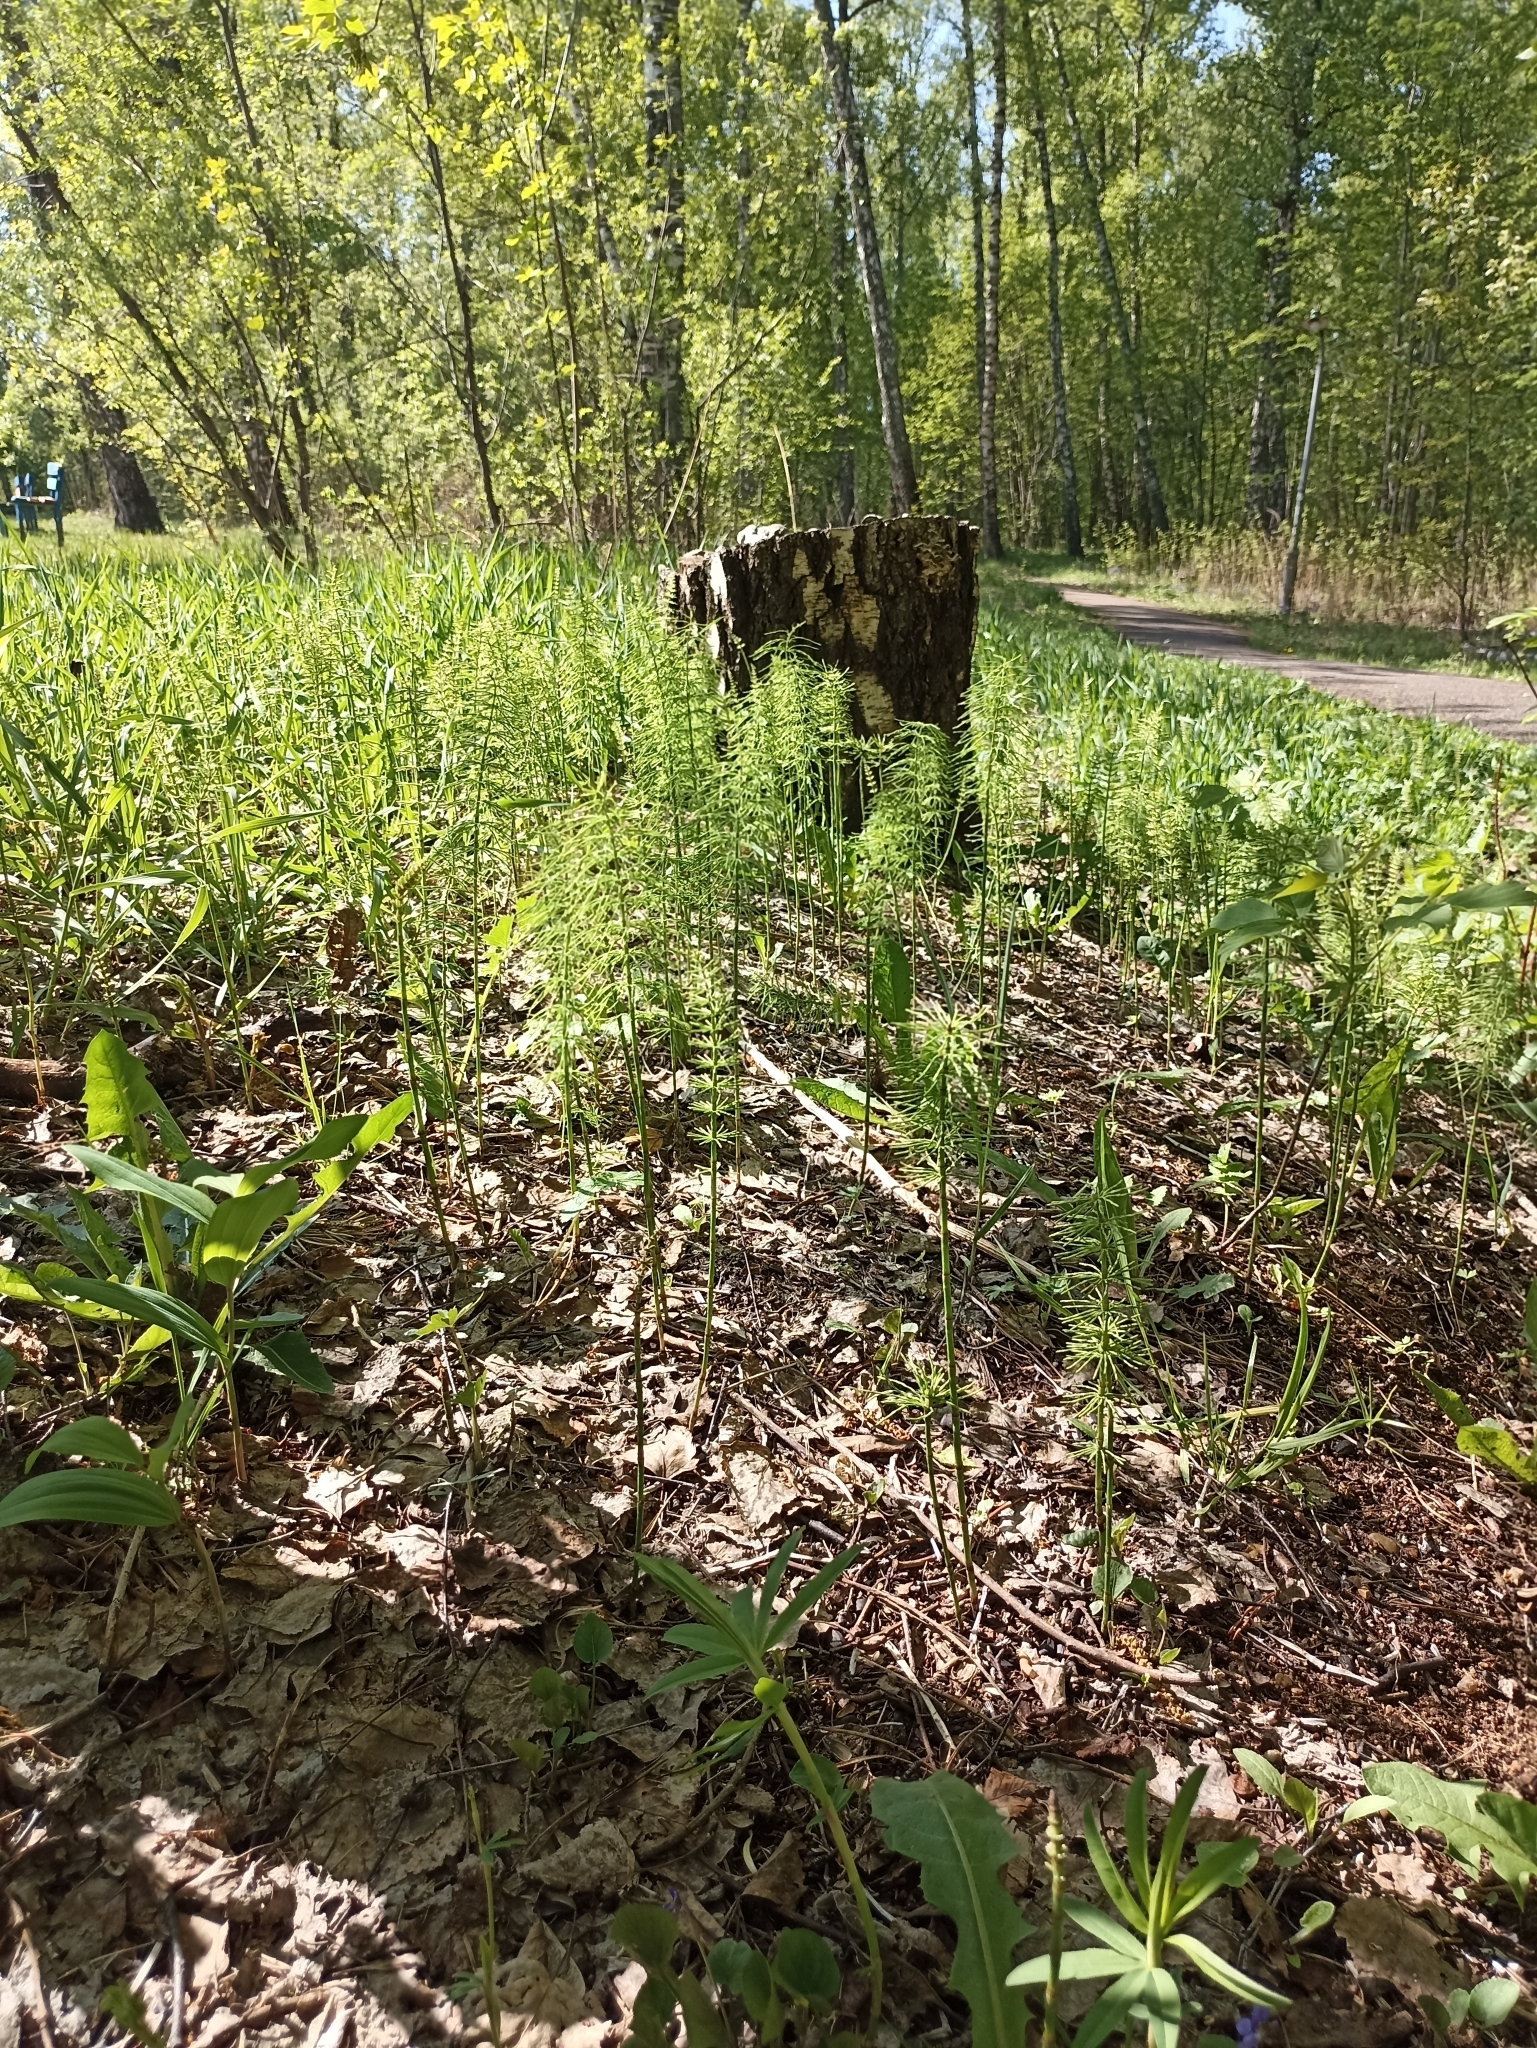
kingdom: Plantae
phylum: Tracheophyta
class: Polypodiopsida
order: Equisetales
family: Equisetaceae
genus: Equisetum
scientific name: Equisetum pratense
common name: Meadow horsetail
